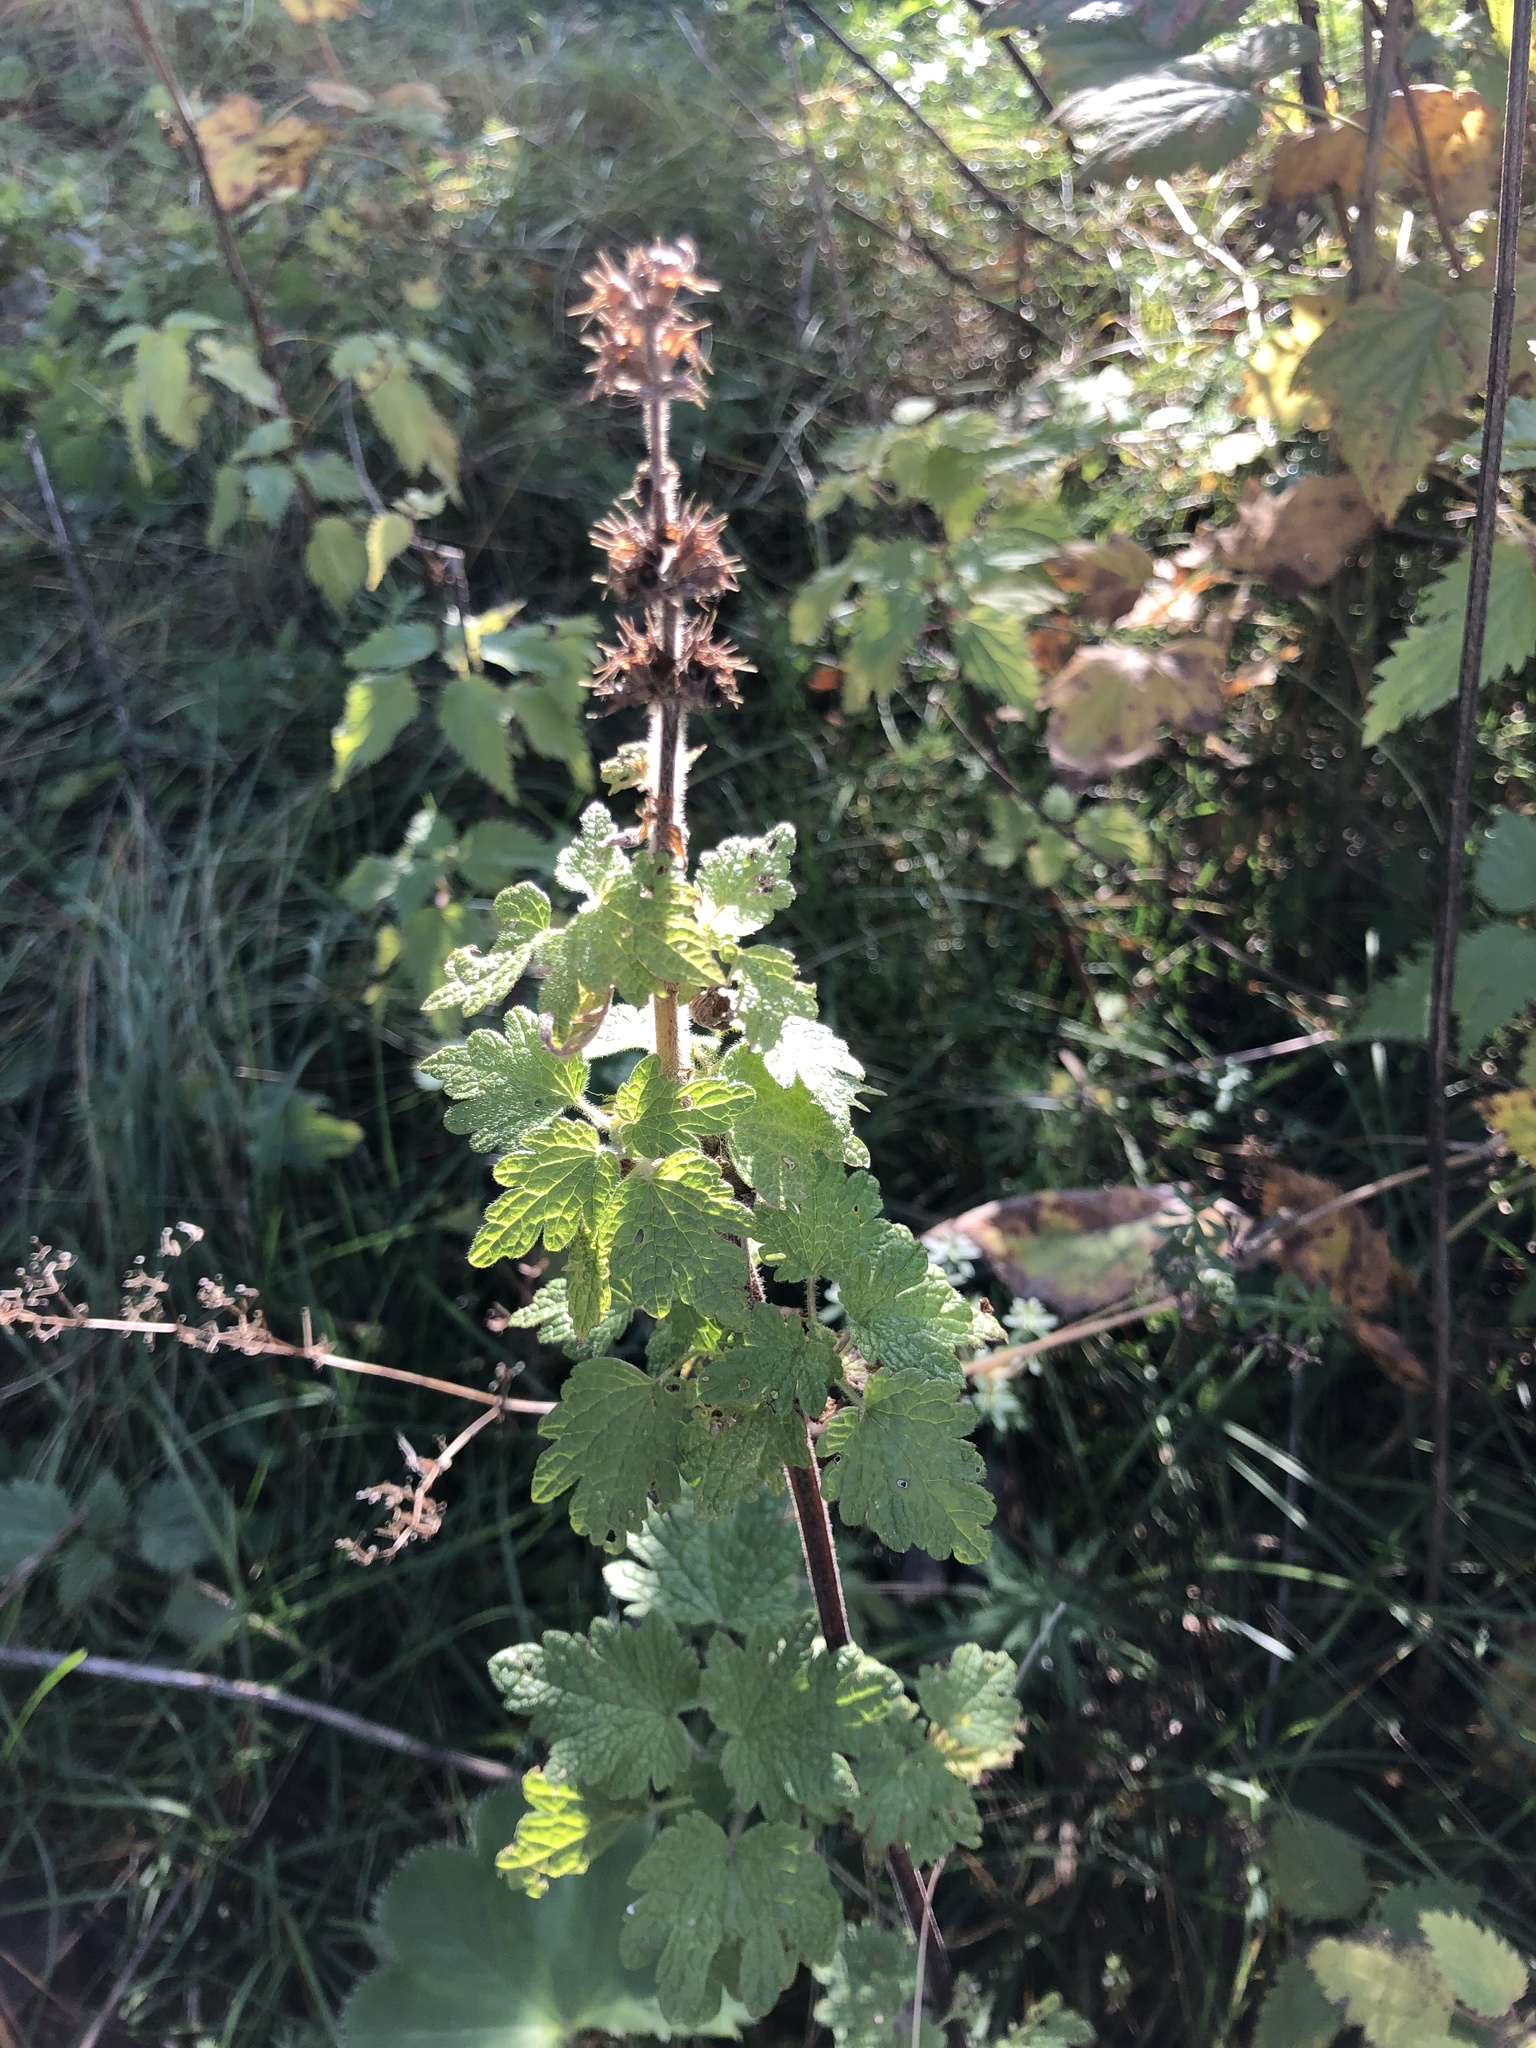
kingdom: Plantae
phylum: Tracheophyta
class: Magnoliopsida
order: Lamiales
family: Lamiaceae
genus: Leonurus
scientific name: Leonurus quinquelobatus
